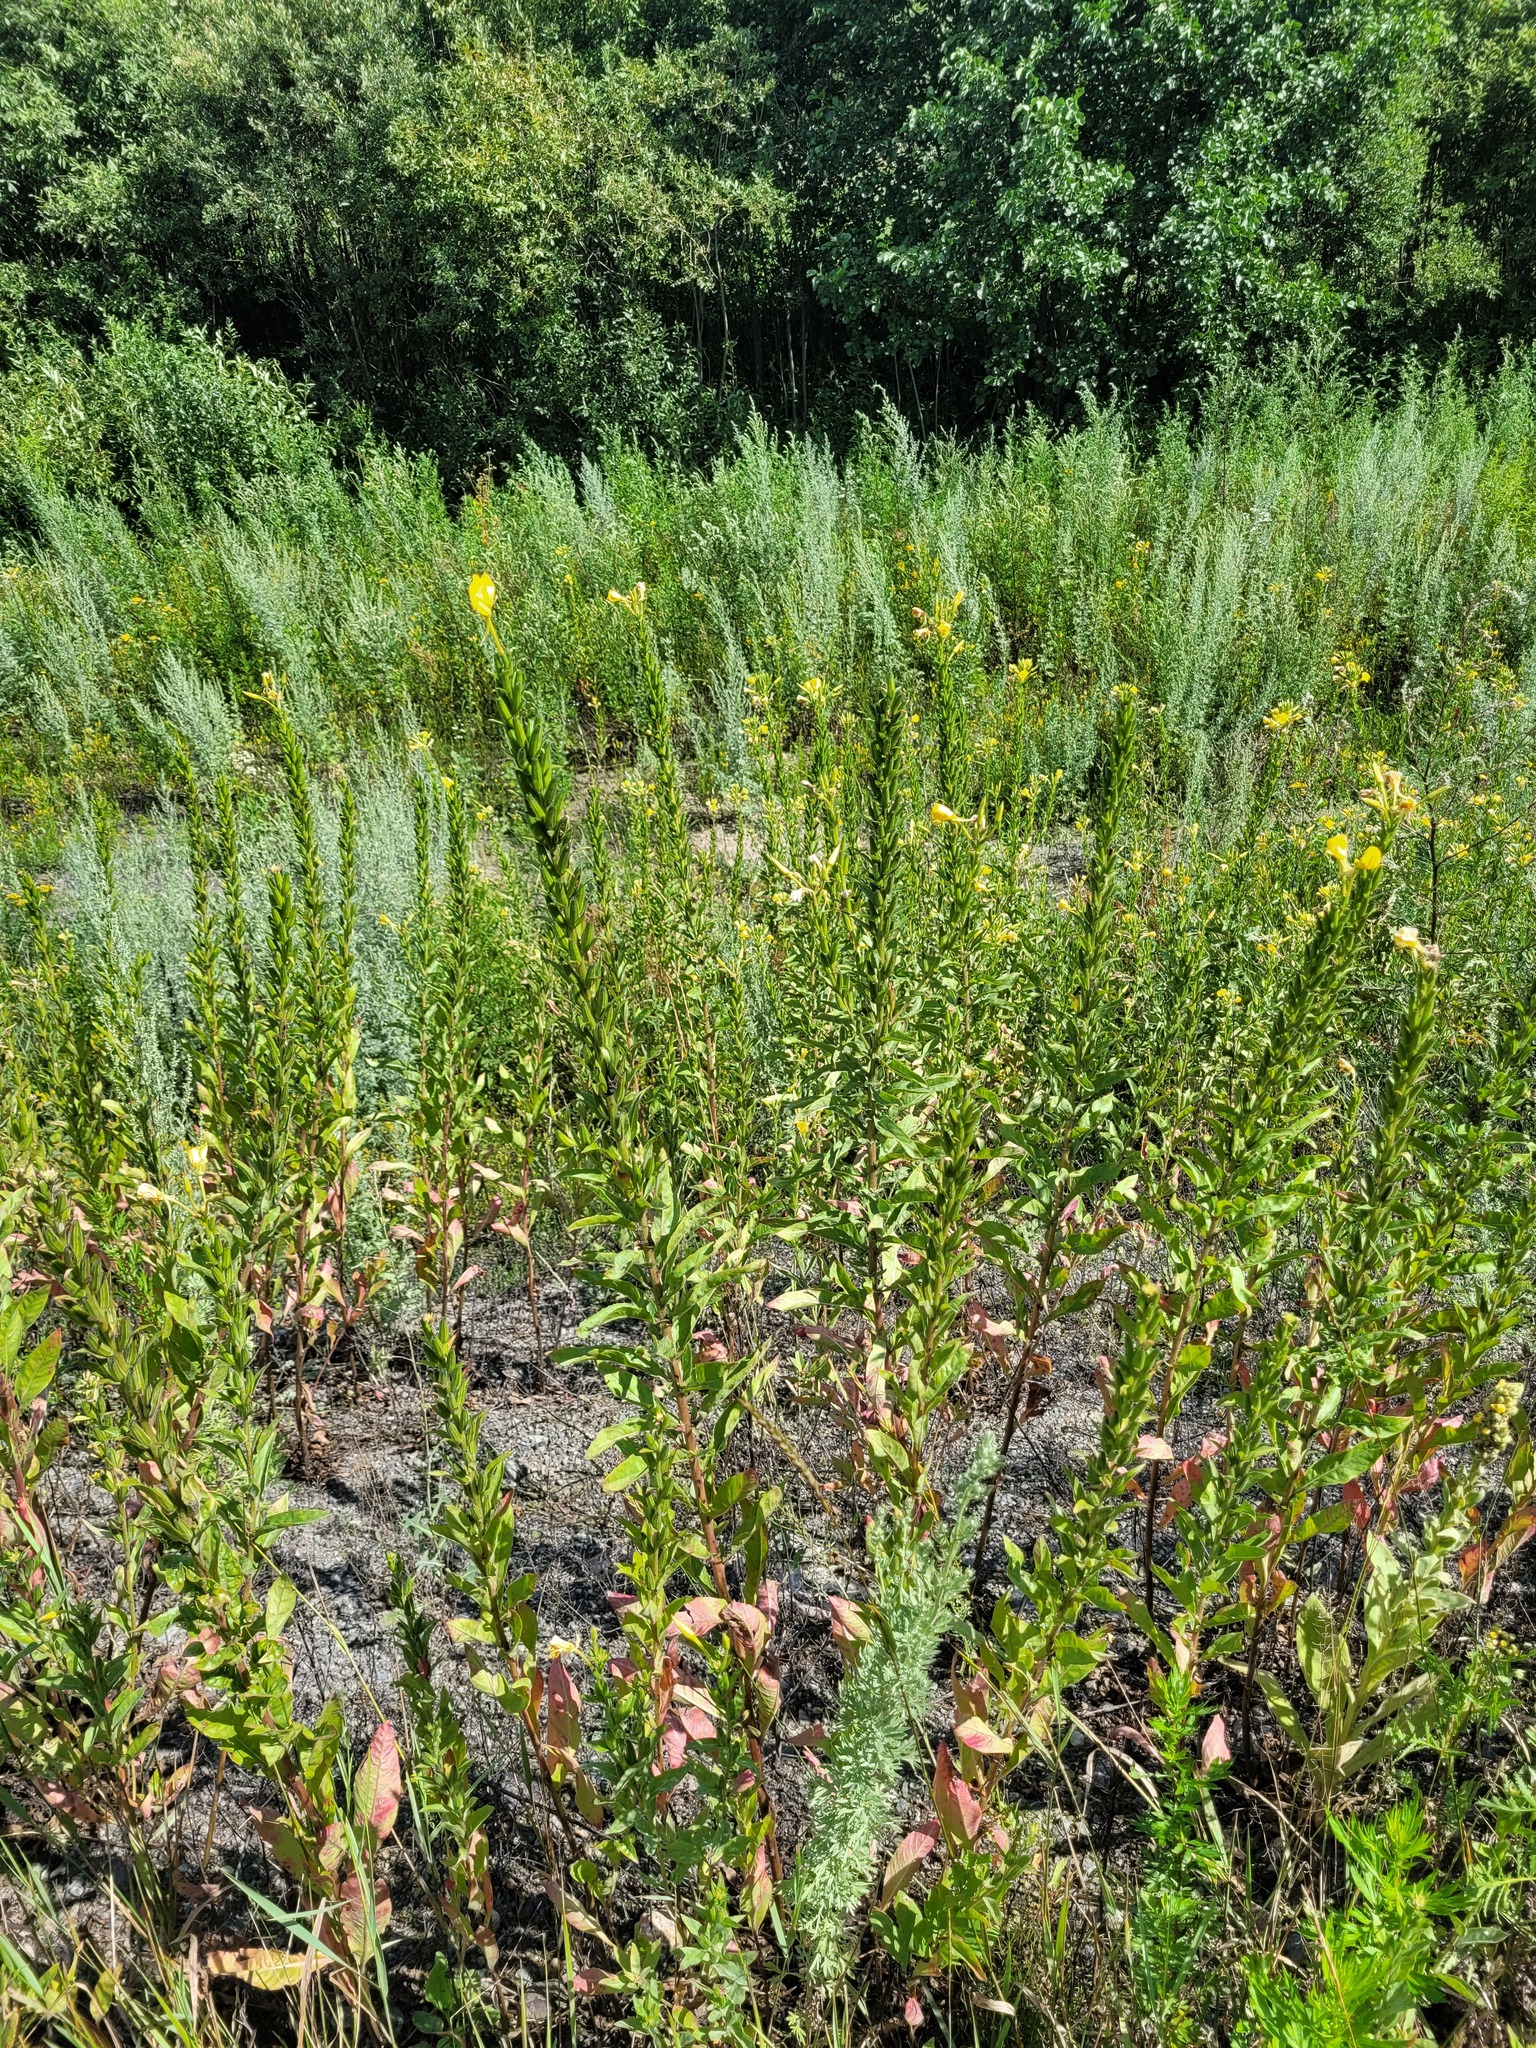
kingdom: Plantae
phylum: Tracheophyta
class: Magnoliopsida
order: Myrtales
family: Onagraceae
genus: Oenothera
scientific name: Oenothera biennis
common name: Common evening-primrose
